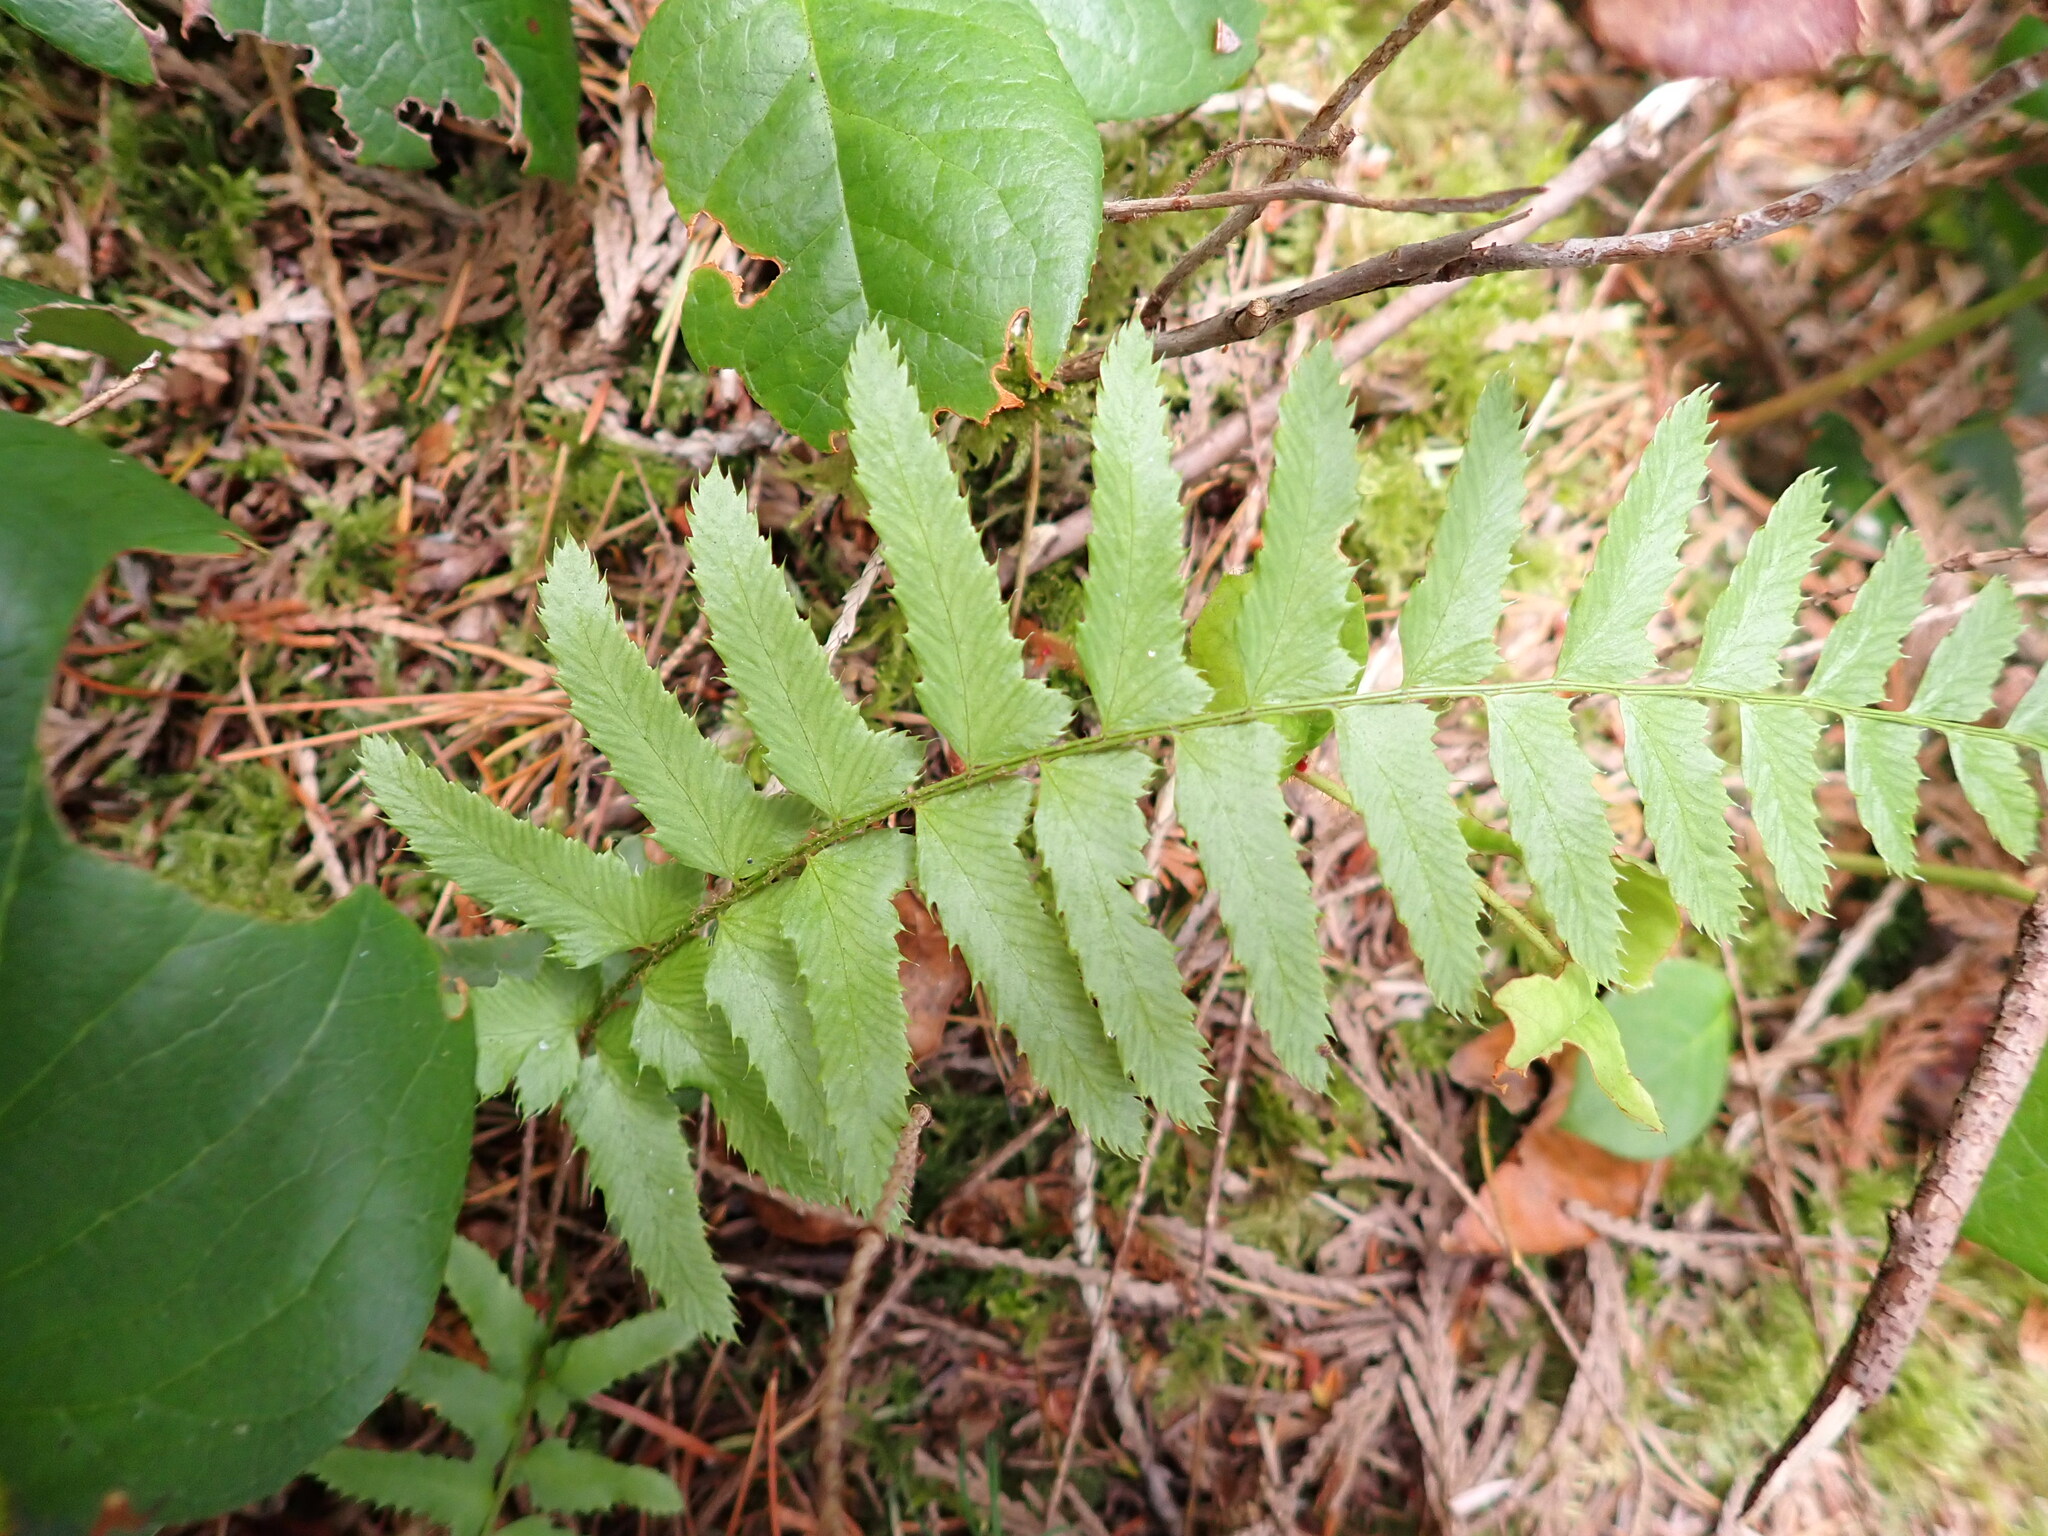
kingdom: Plantae
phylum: Tracheophyta
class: Polypodiopsida
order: Polypodiales
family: Dryopteridaceae
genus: Polystichum
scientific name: Polystichum munitum
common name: Western sword-fern
